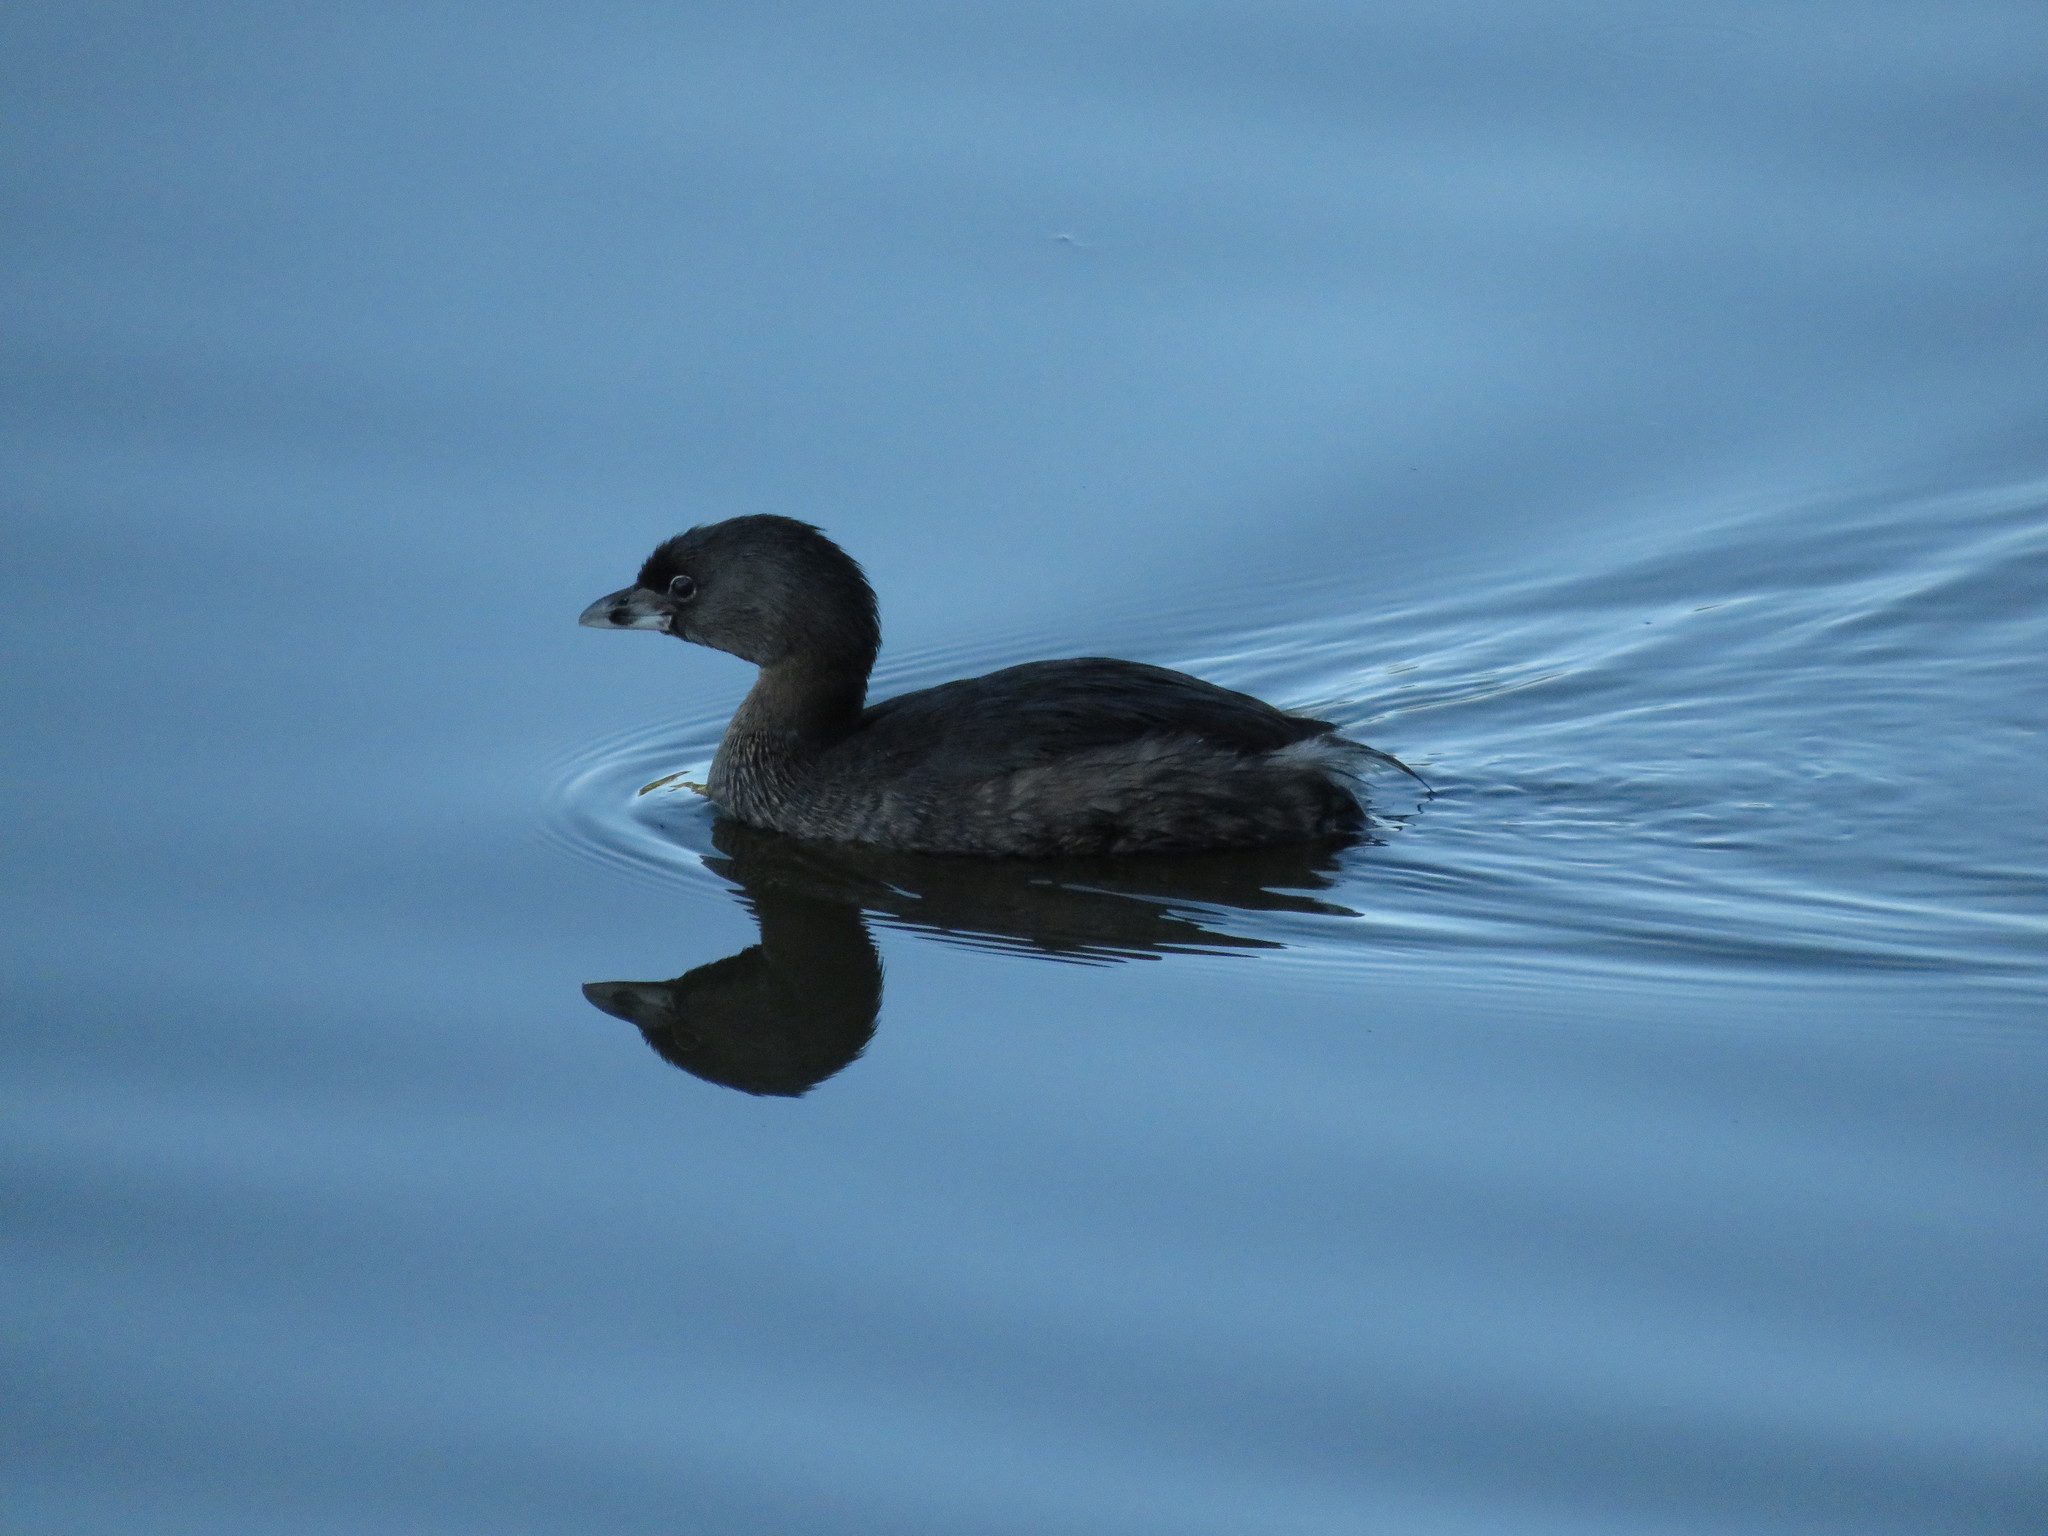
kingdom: Animalia
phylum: Chordata
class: Aves
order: Podicipediformes
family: Podicipedidae
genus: Podilymbus
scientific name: Podilymbus podiceps
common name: Pied-billed grebe
